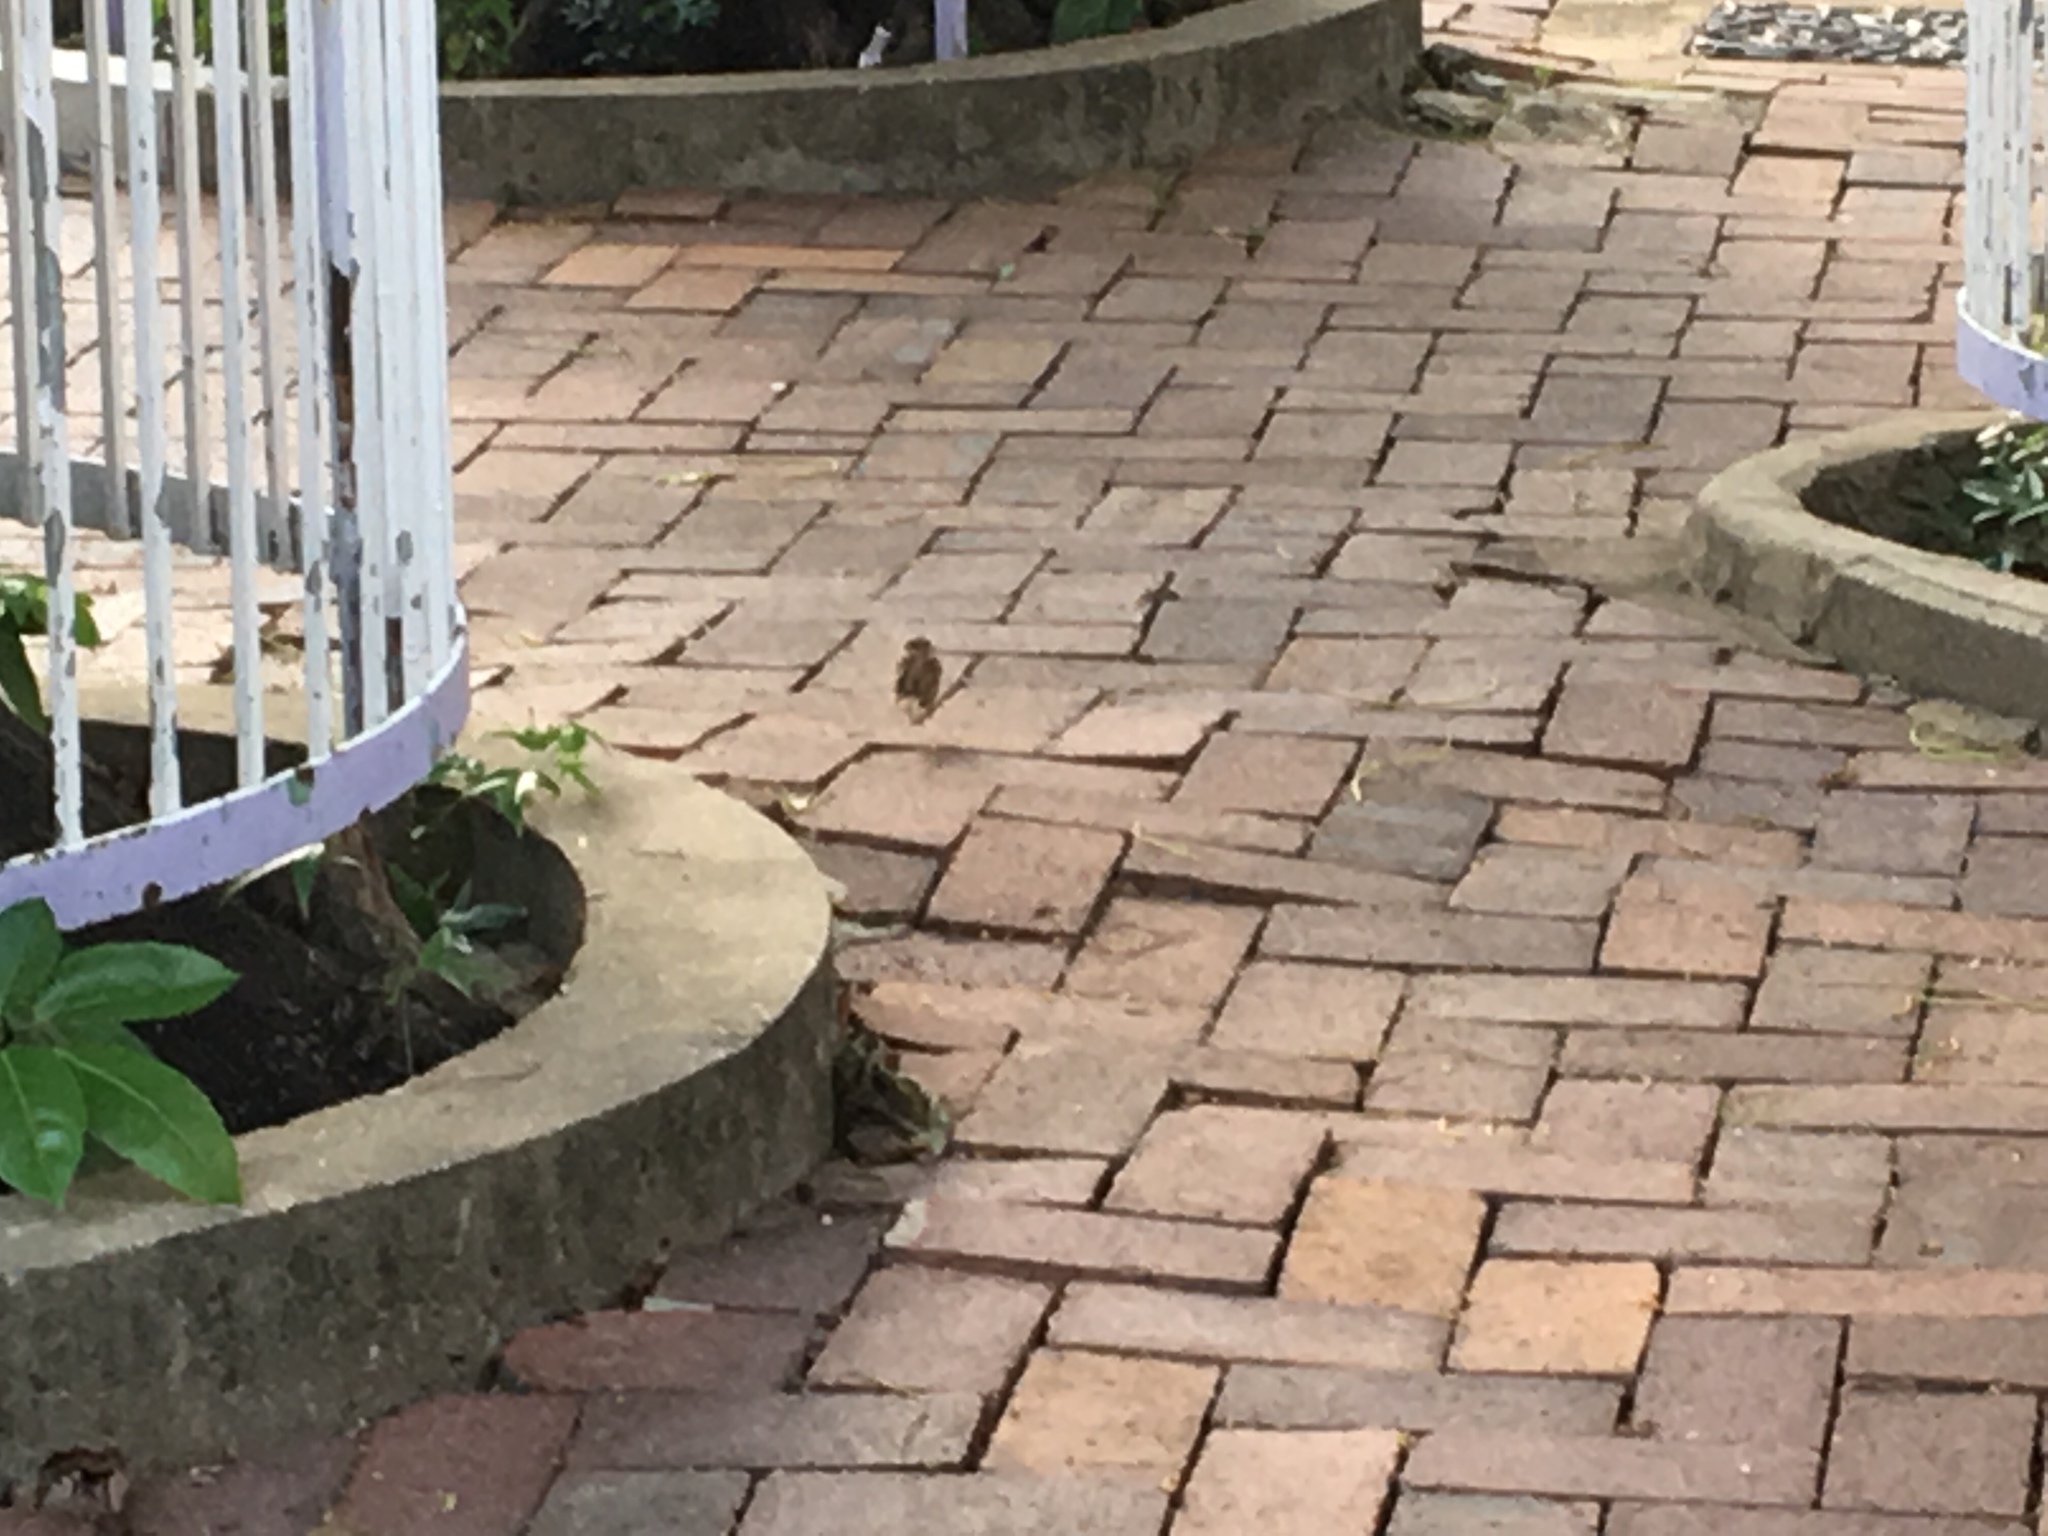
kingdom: Animalia
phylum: Chordata
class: Aves
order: Passeriformes
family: Passeridae
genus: Passer
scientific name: Passer montanus
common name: Eurasian tree sparrow
